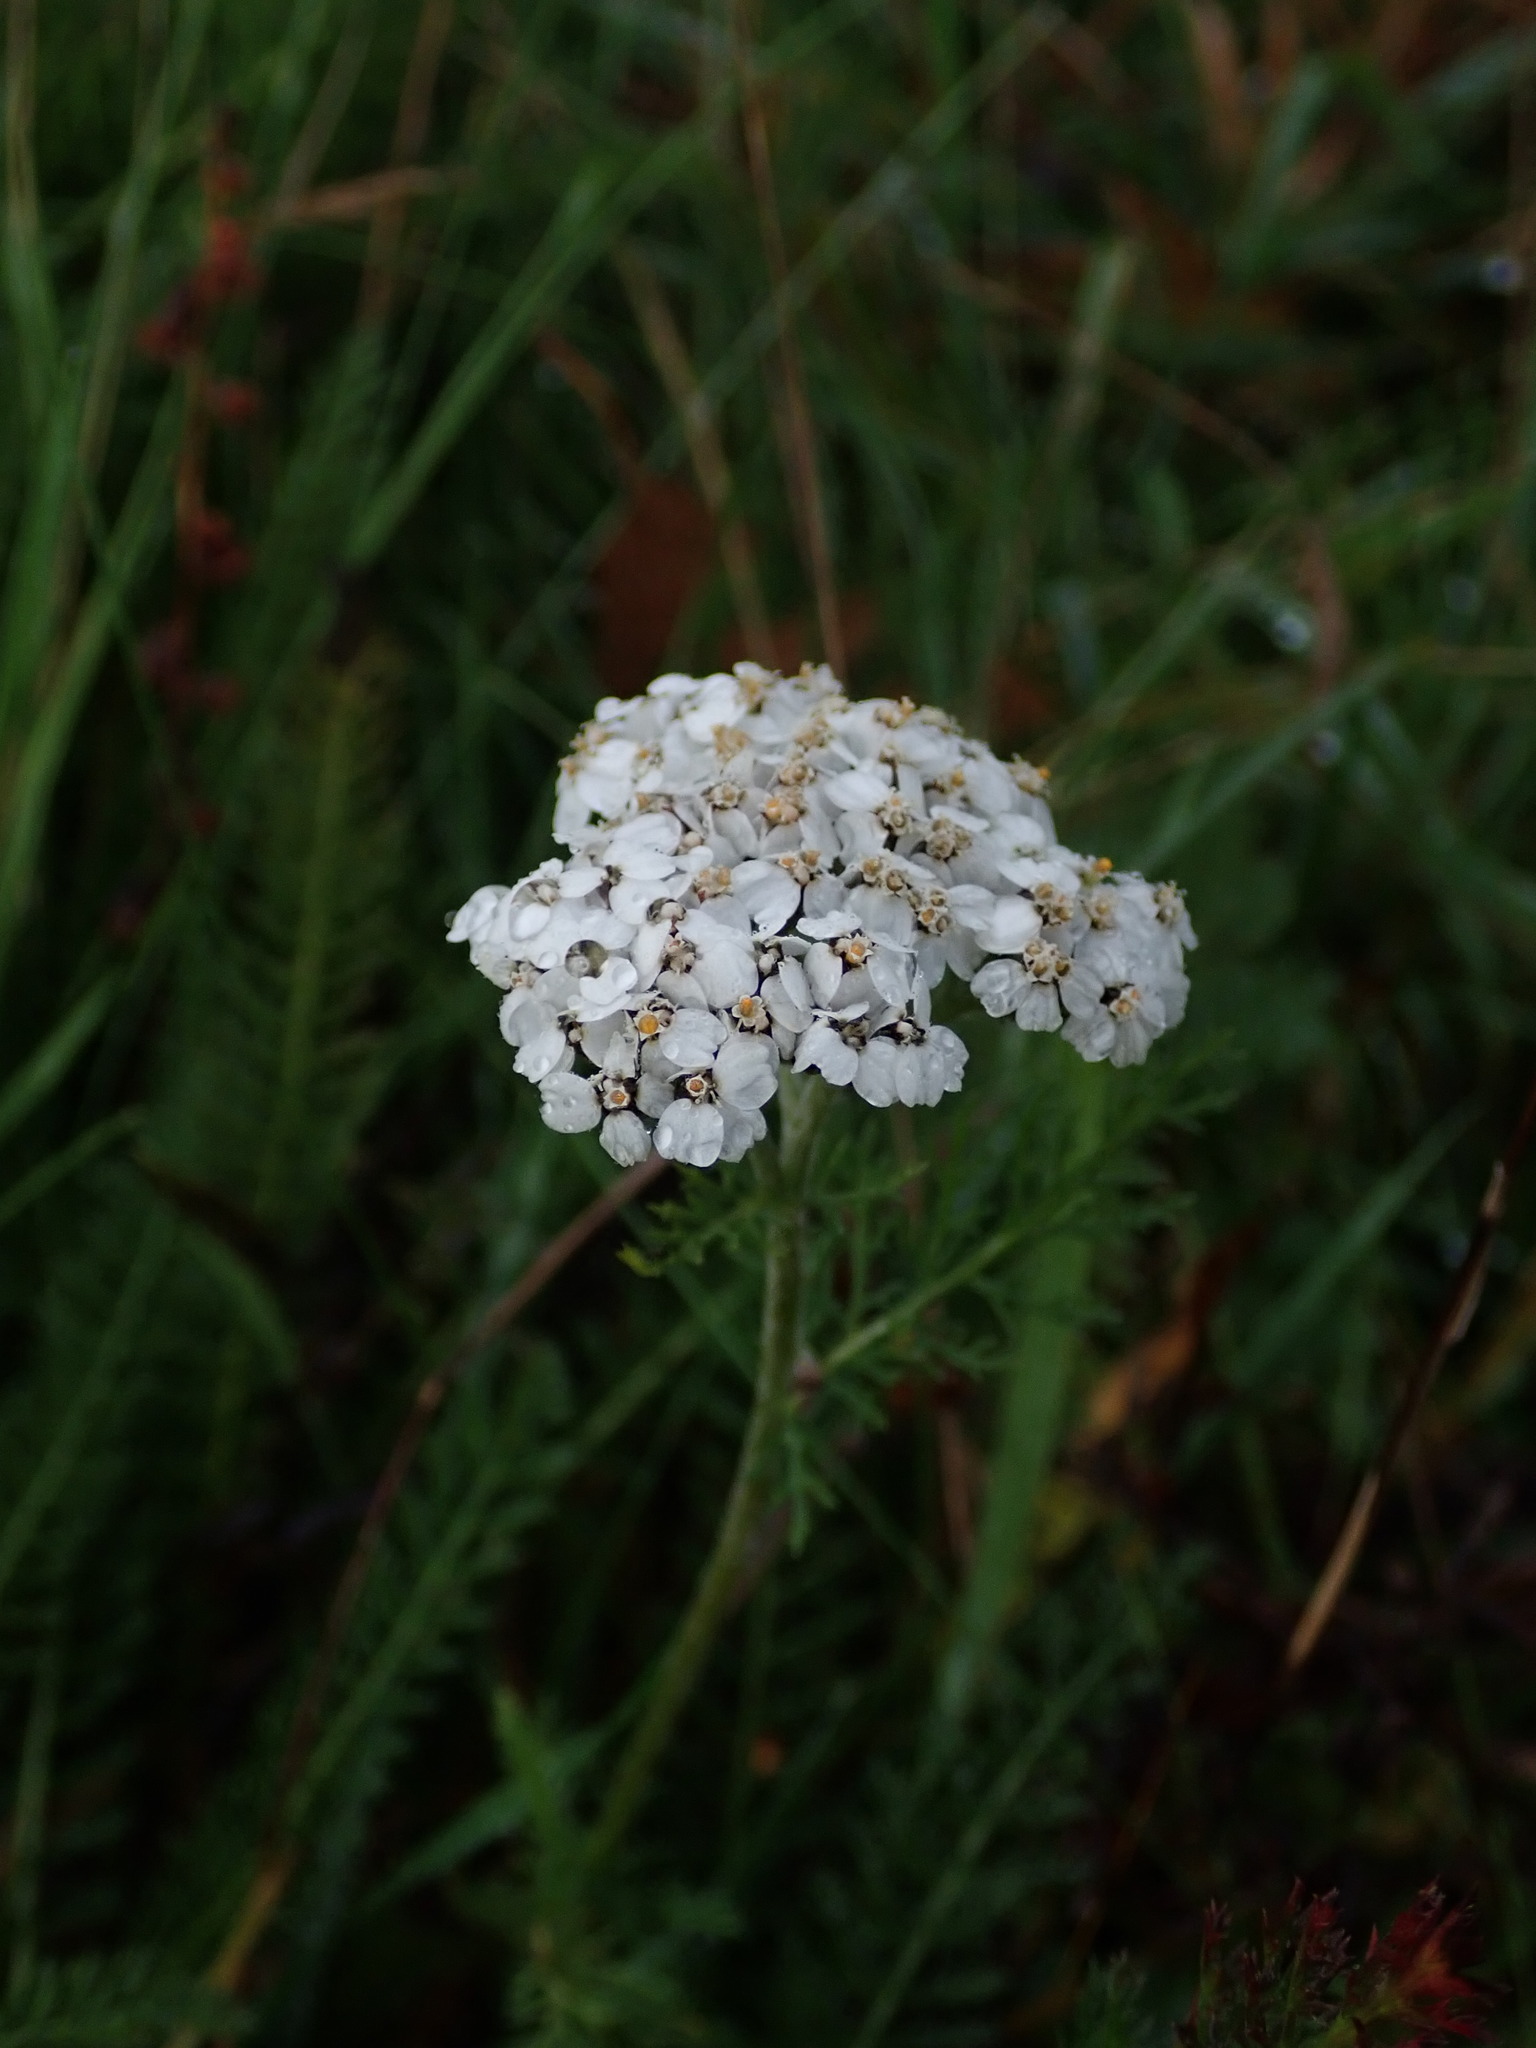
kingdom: Plantae
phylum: Tracheophyta
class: Magnoliopsida
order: Asterales
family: Asteraceae
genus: Achillea
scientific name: Achillea millefolium
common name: Yarrow
